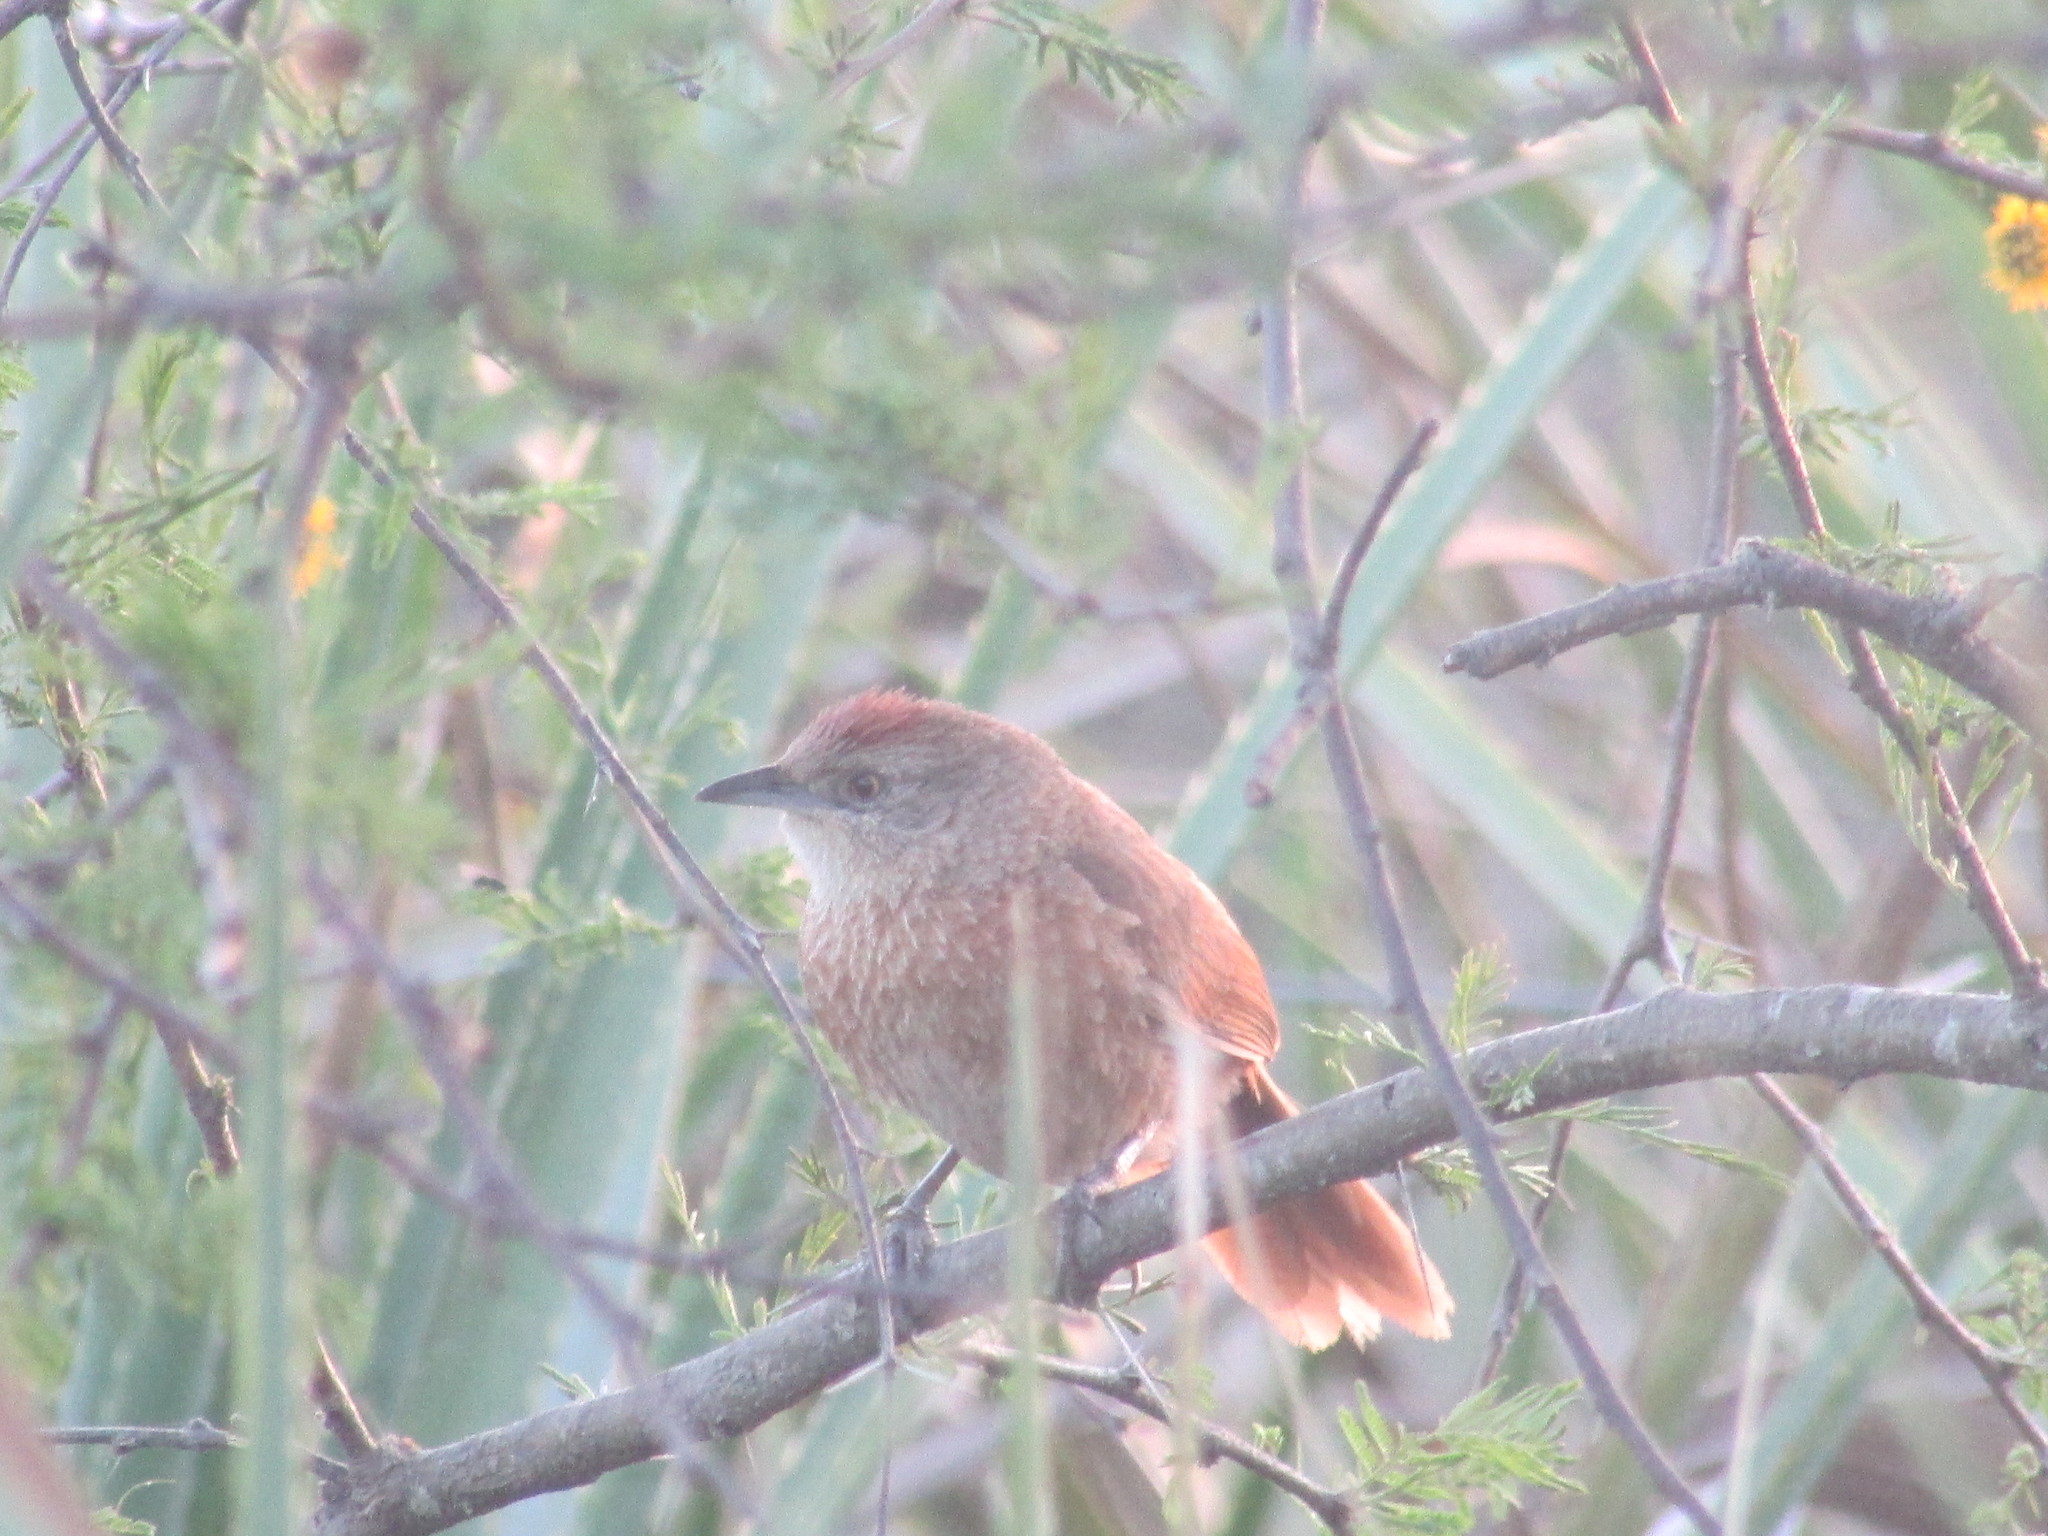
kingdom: Animalia
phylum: Chordata
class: Aves
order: Passeriformes
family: Furnariidae
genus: Phacellodomus
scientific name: Phacellodomus striaticollis
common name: Freckle-breasted thornbird
